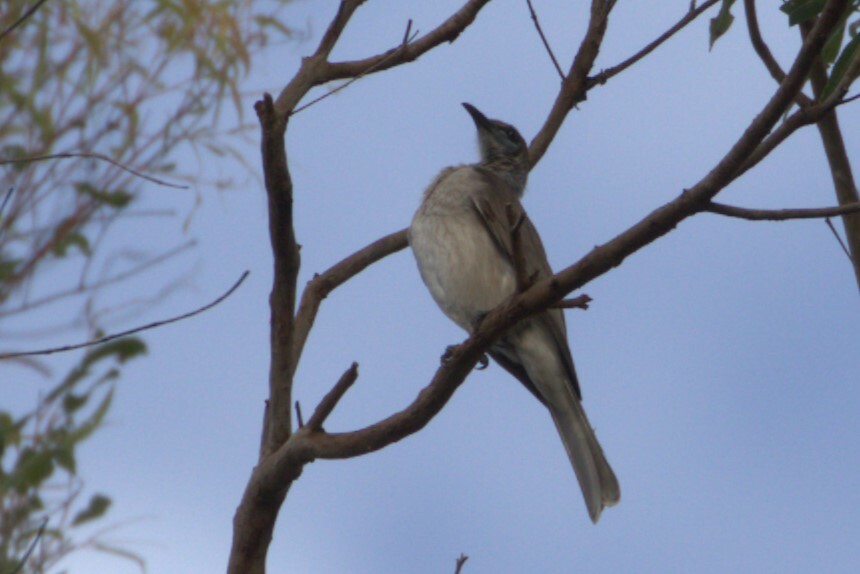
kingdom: Animalia
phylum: Chordata
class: Aves
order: Passeriformes
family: Meliphagidae
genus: Philemon
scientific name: Philemon citreogularis
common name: Little friarbird
